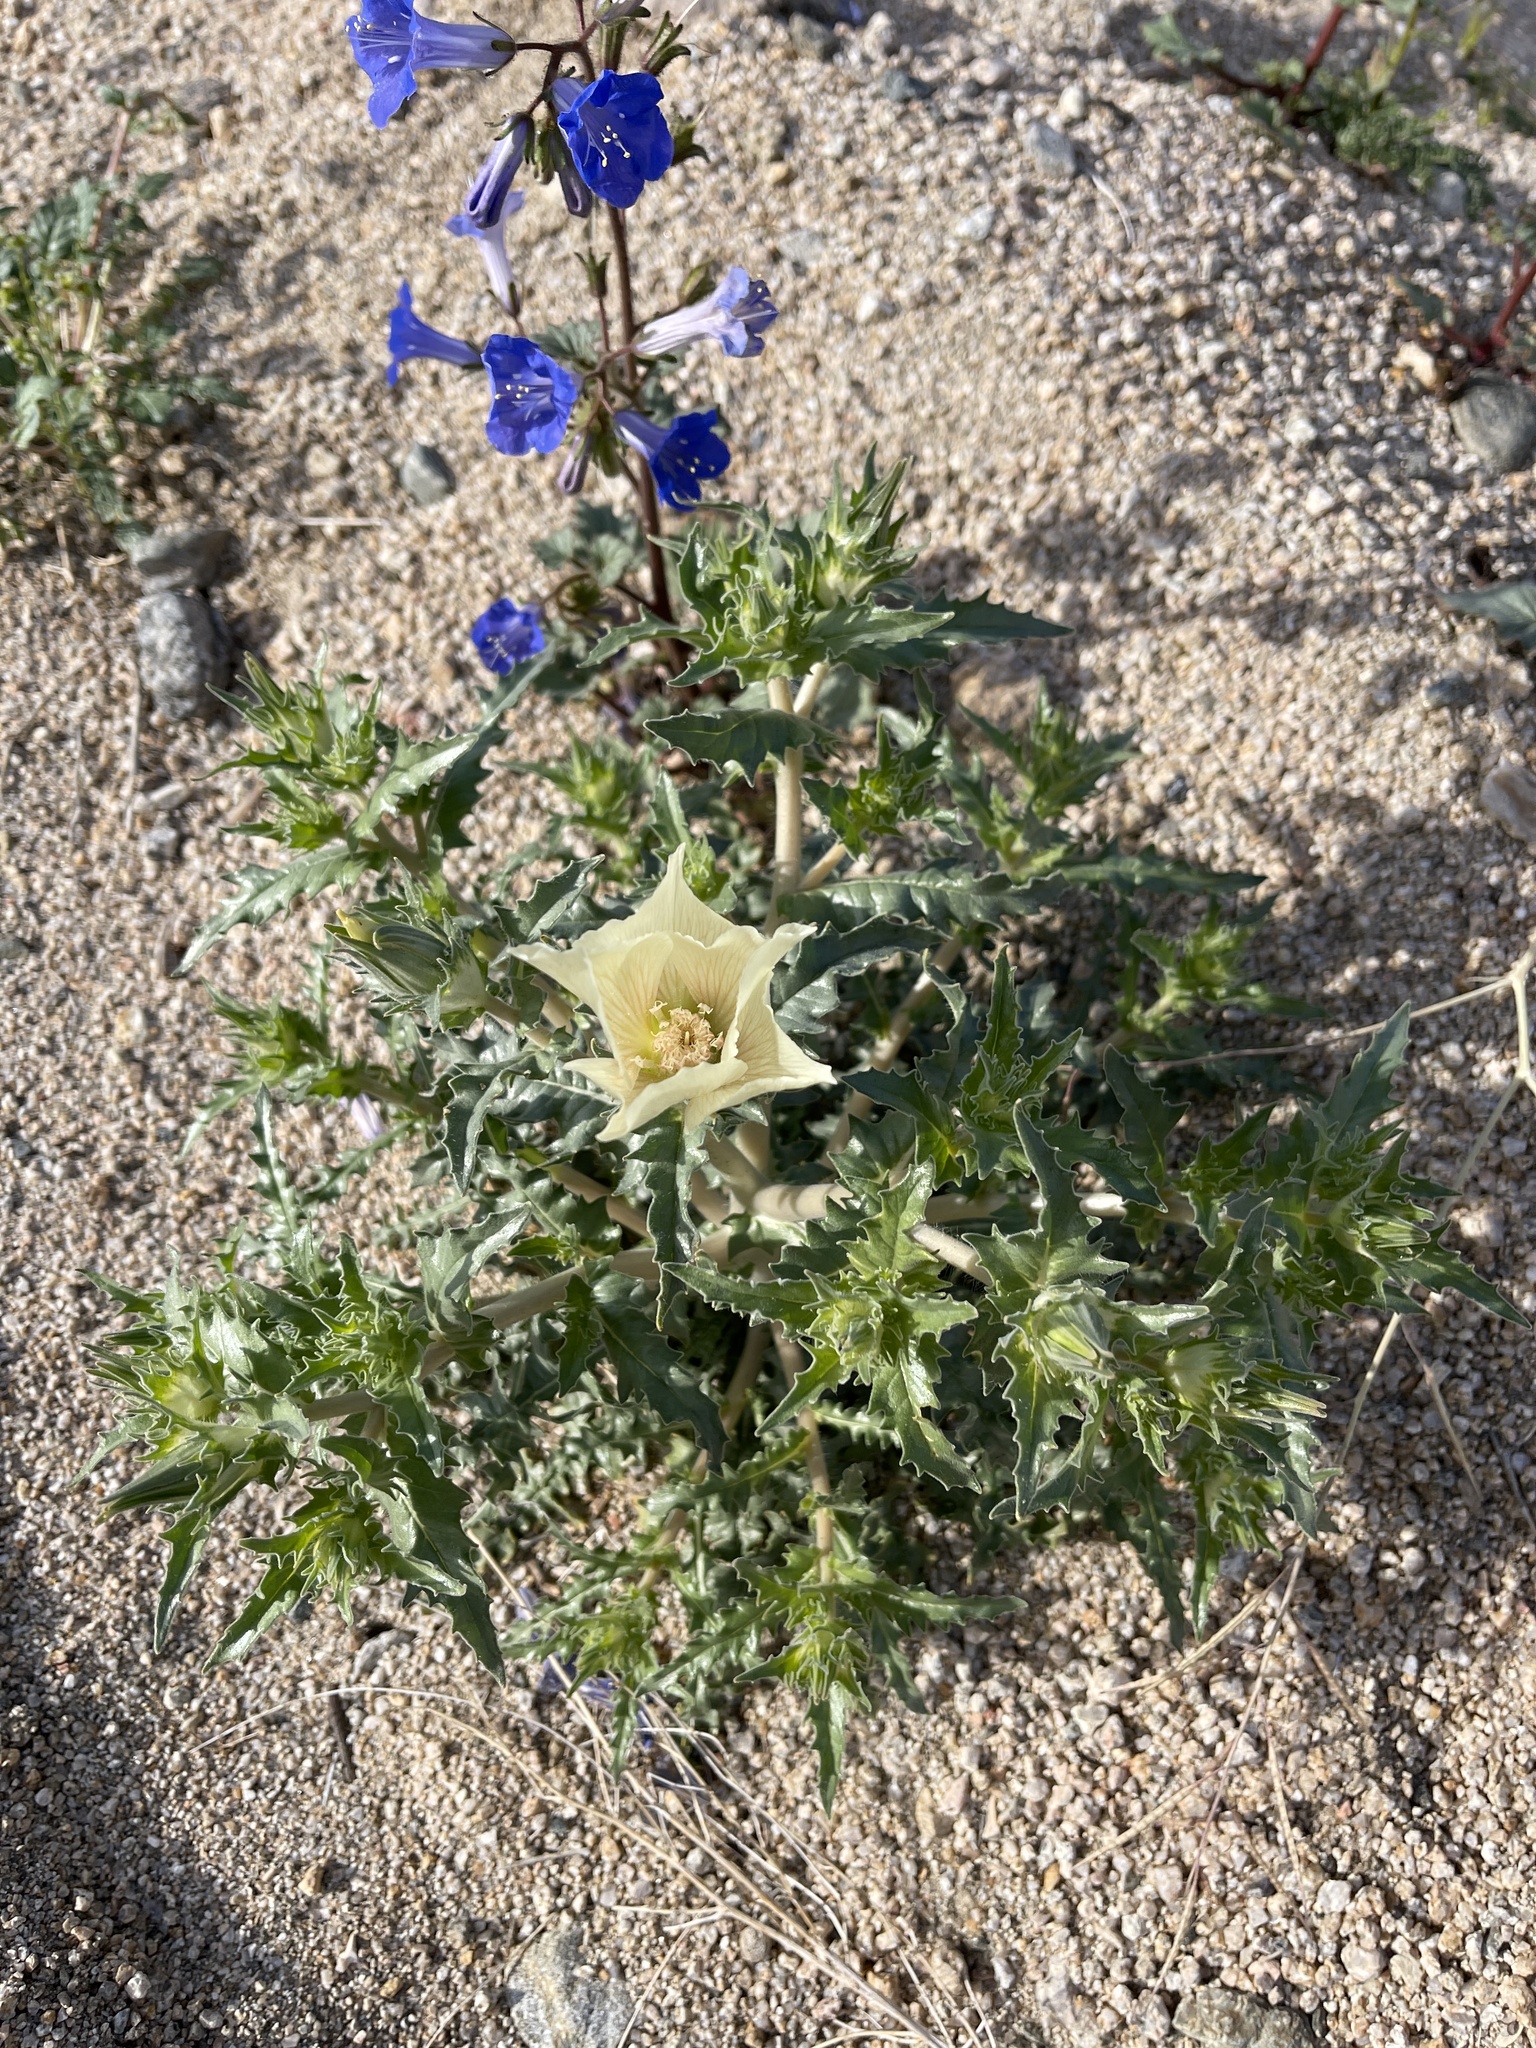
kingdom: Plantae
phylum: Tracheophyta
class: Magnoliopsida
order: Cornales
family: Loasaceae
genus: Mentzelia
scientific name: Mentzelia involucrata
